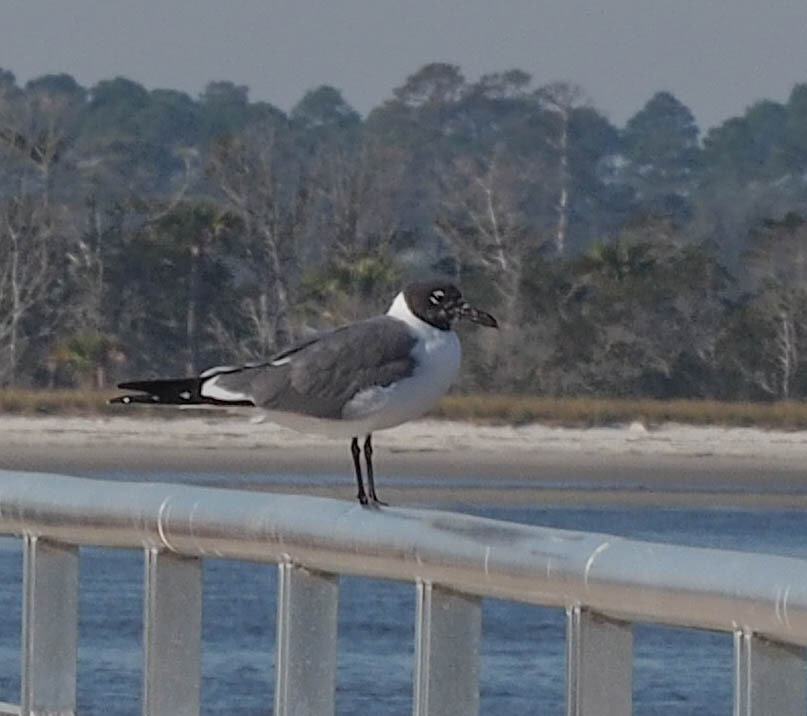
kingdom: Animalia
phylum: Chordata
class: Aves
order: Charadriiformes
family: Laridae
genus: Leucophaeus
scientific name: Leucophaeus atricilla
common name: Laughing gull
